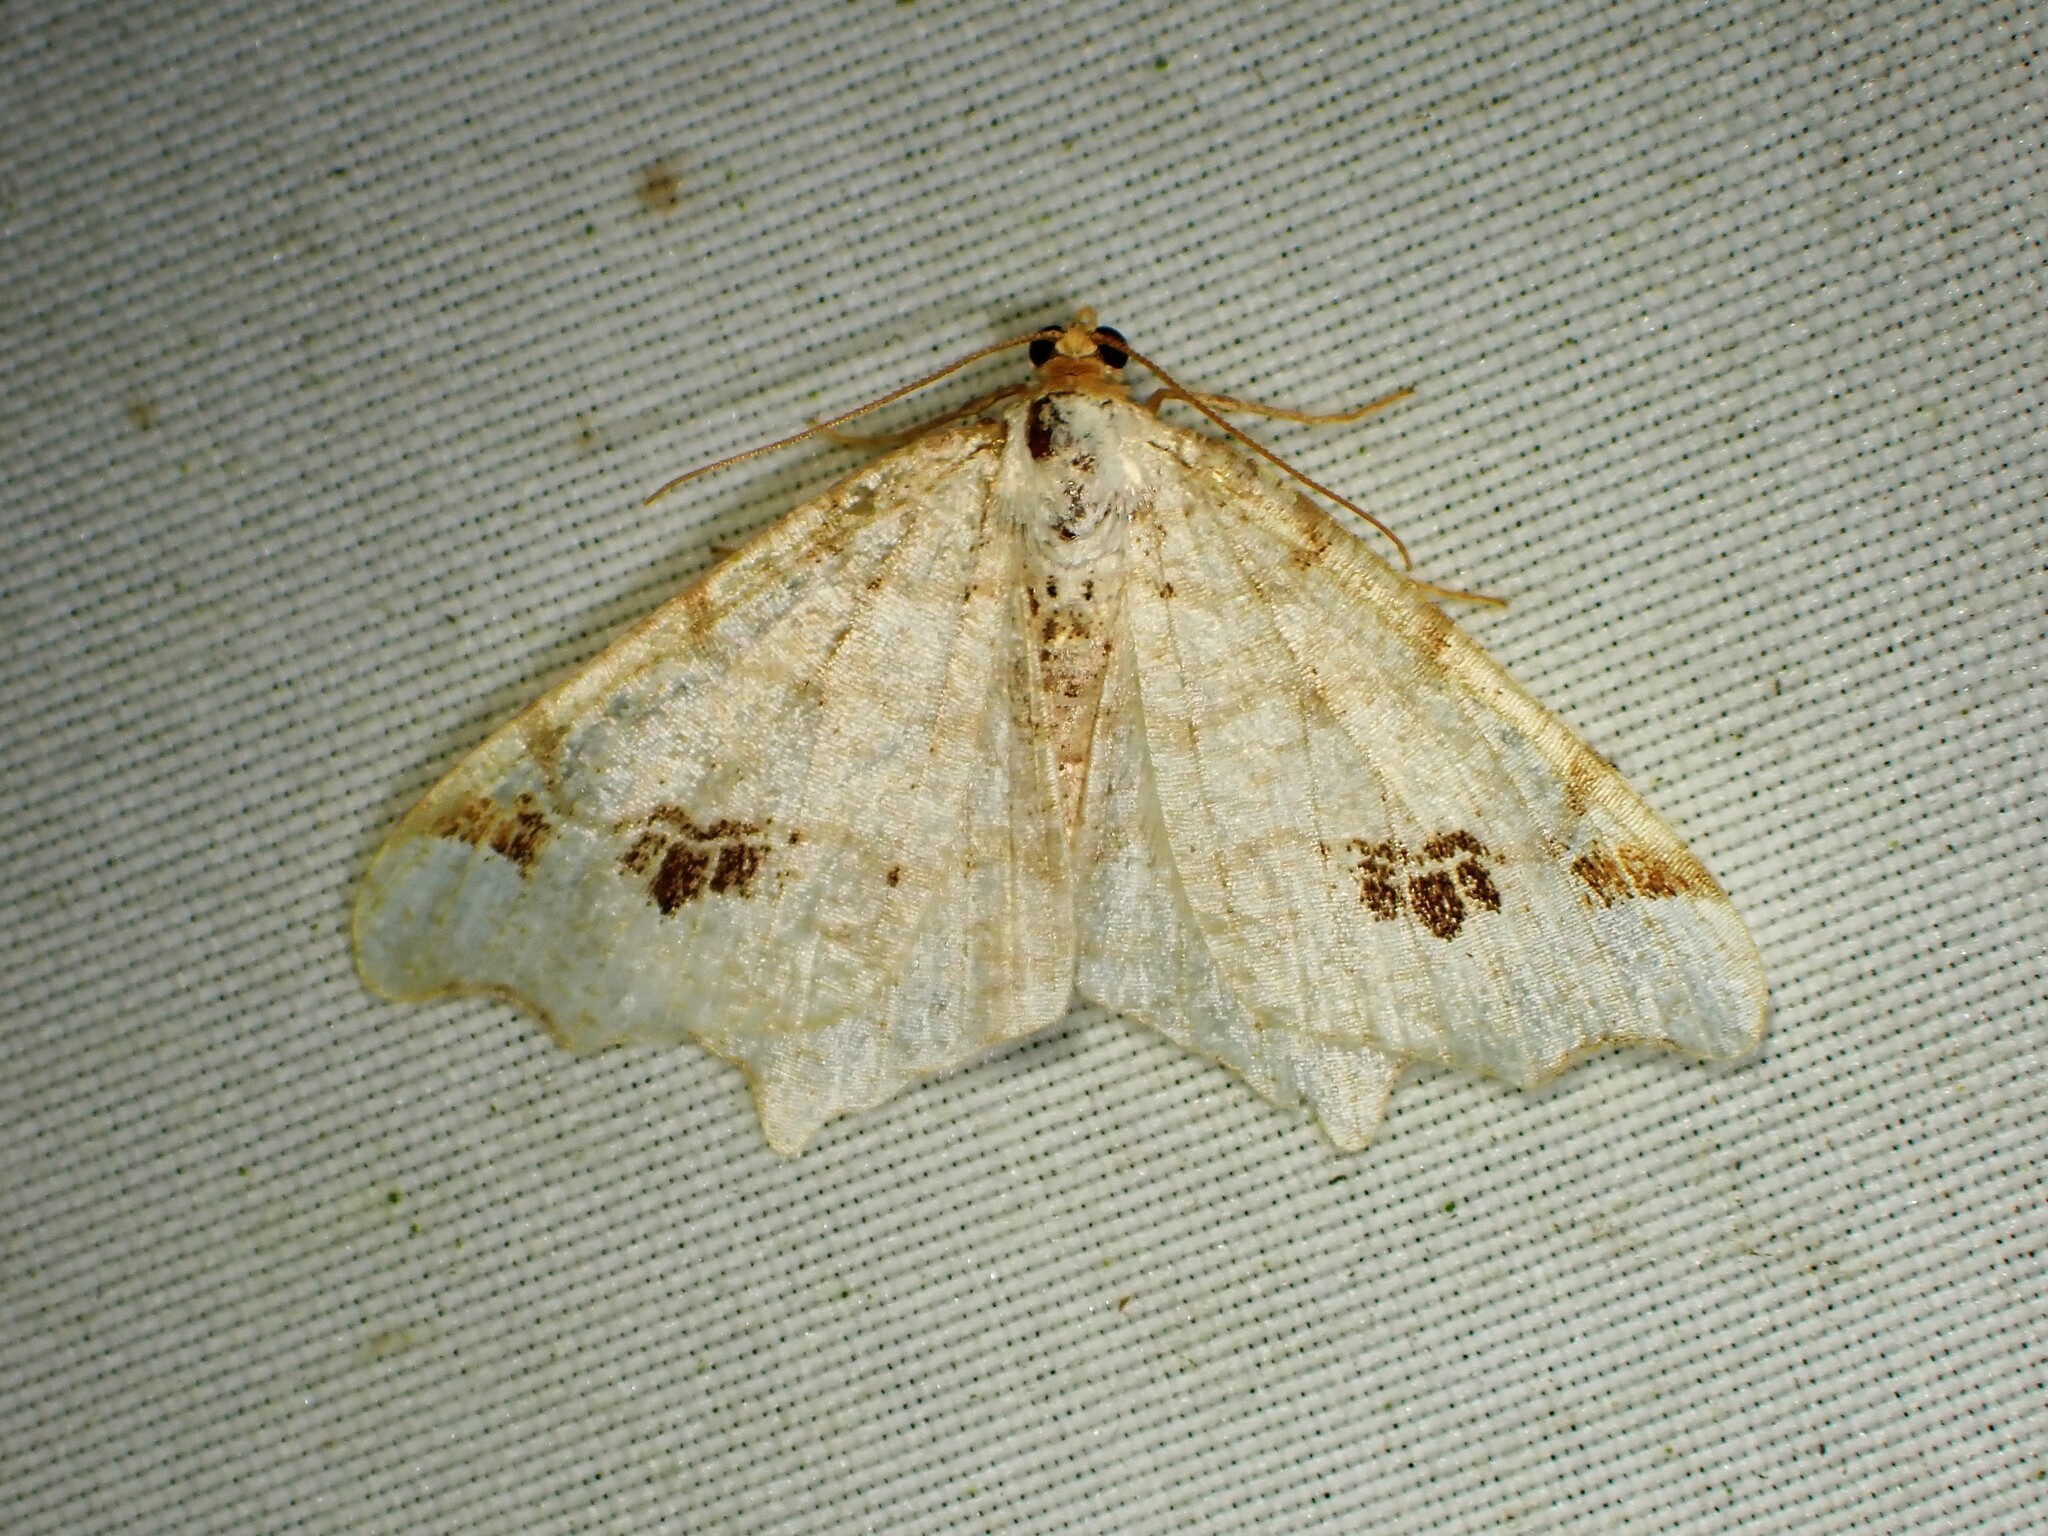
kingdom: Animalia
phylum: Arthropoda
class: Insecta
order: Lepidoptera
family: Geometridae
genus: Macaria
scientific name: Macaria ulsterata
